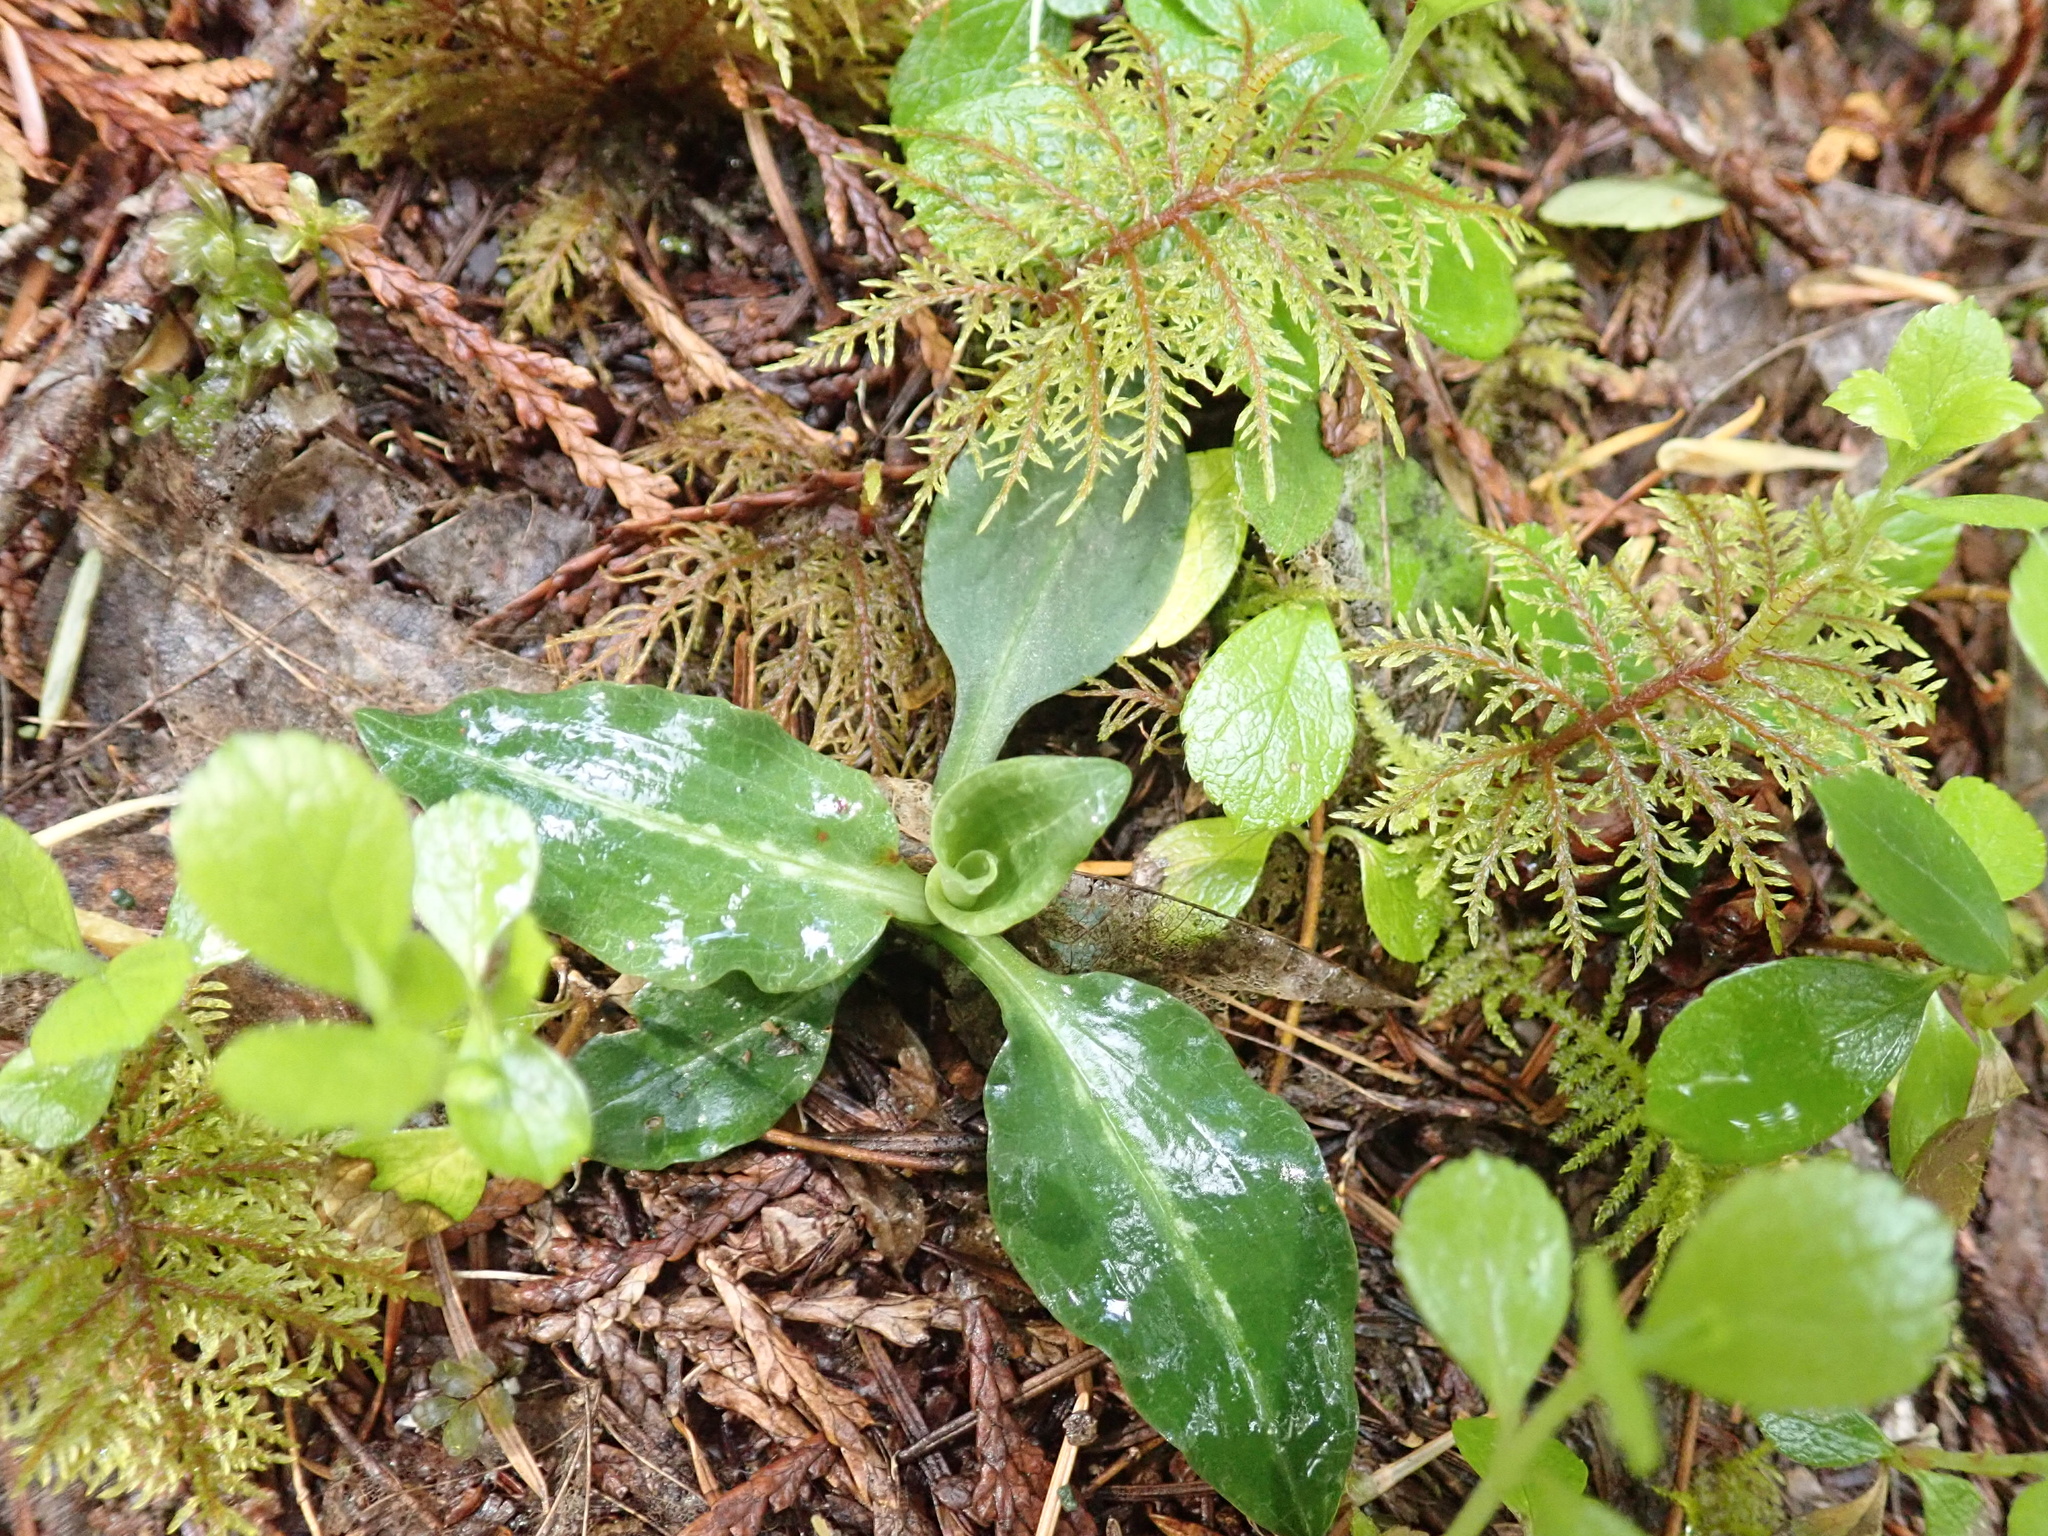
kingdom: Plantae
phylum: Tracheophyta
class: Liliopsida
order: Asparagales
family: Orchidaceae
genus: Goodyera
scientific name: Goodyera oblongifolia
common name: Giant rattlesnake-plantain
